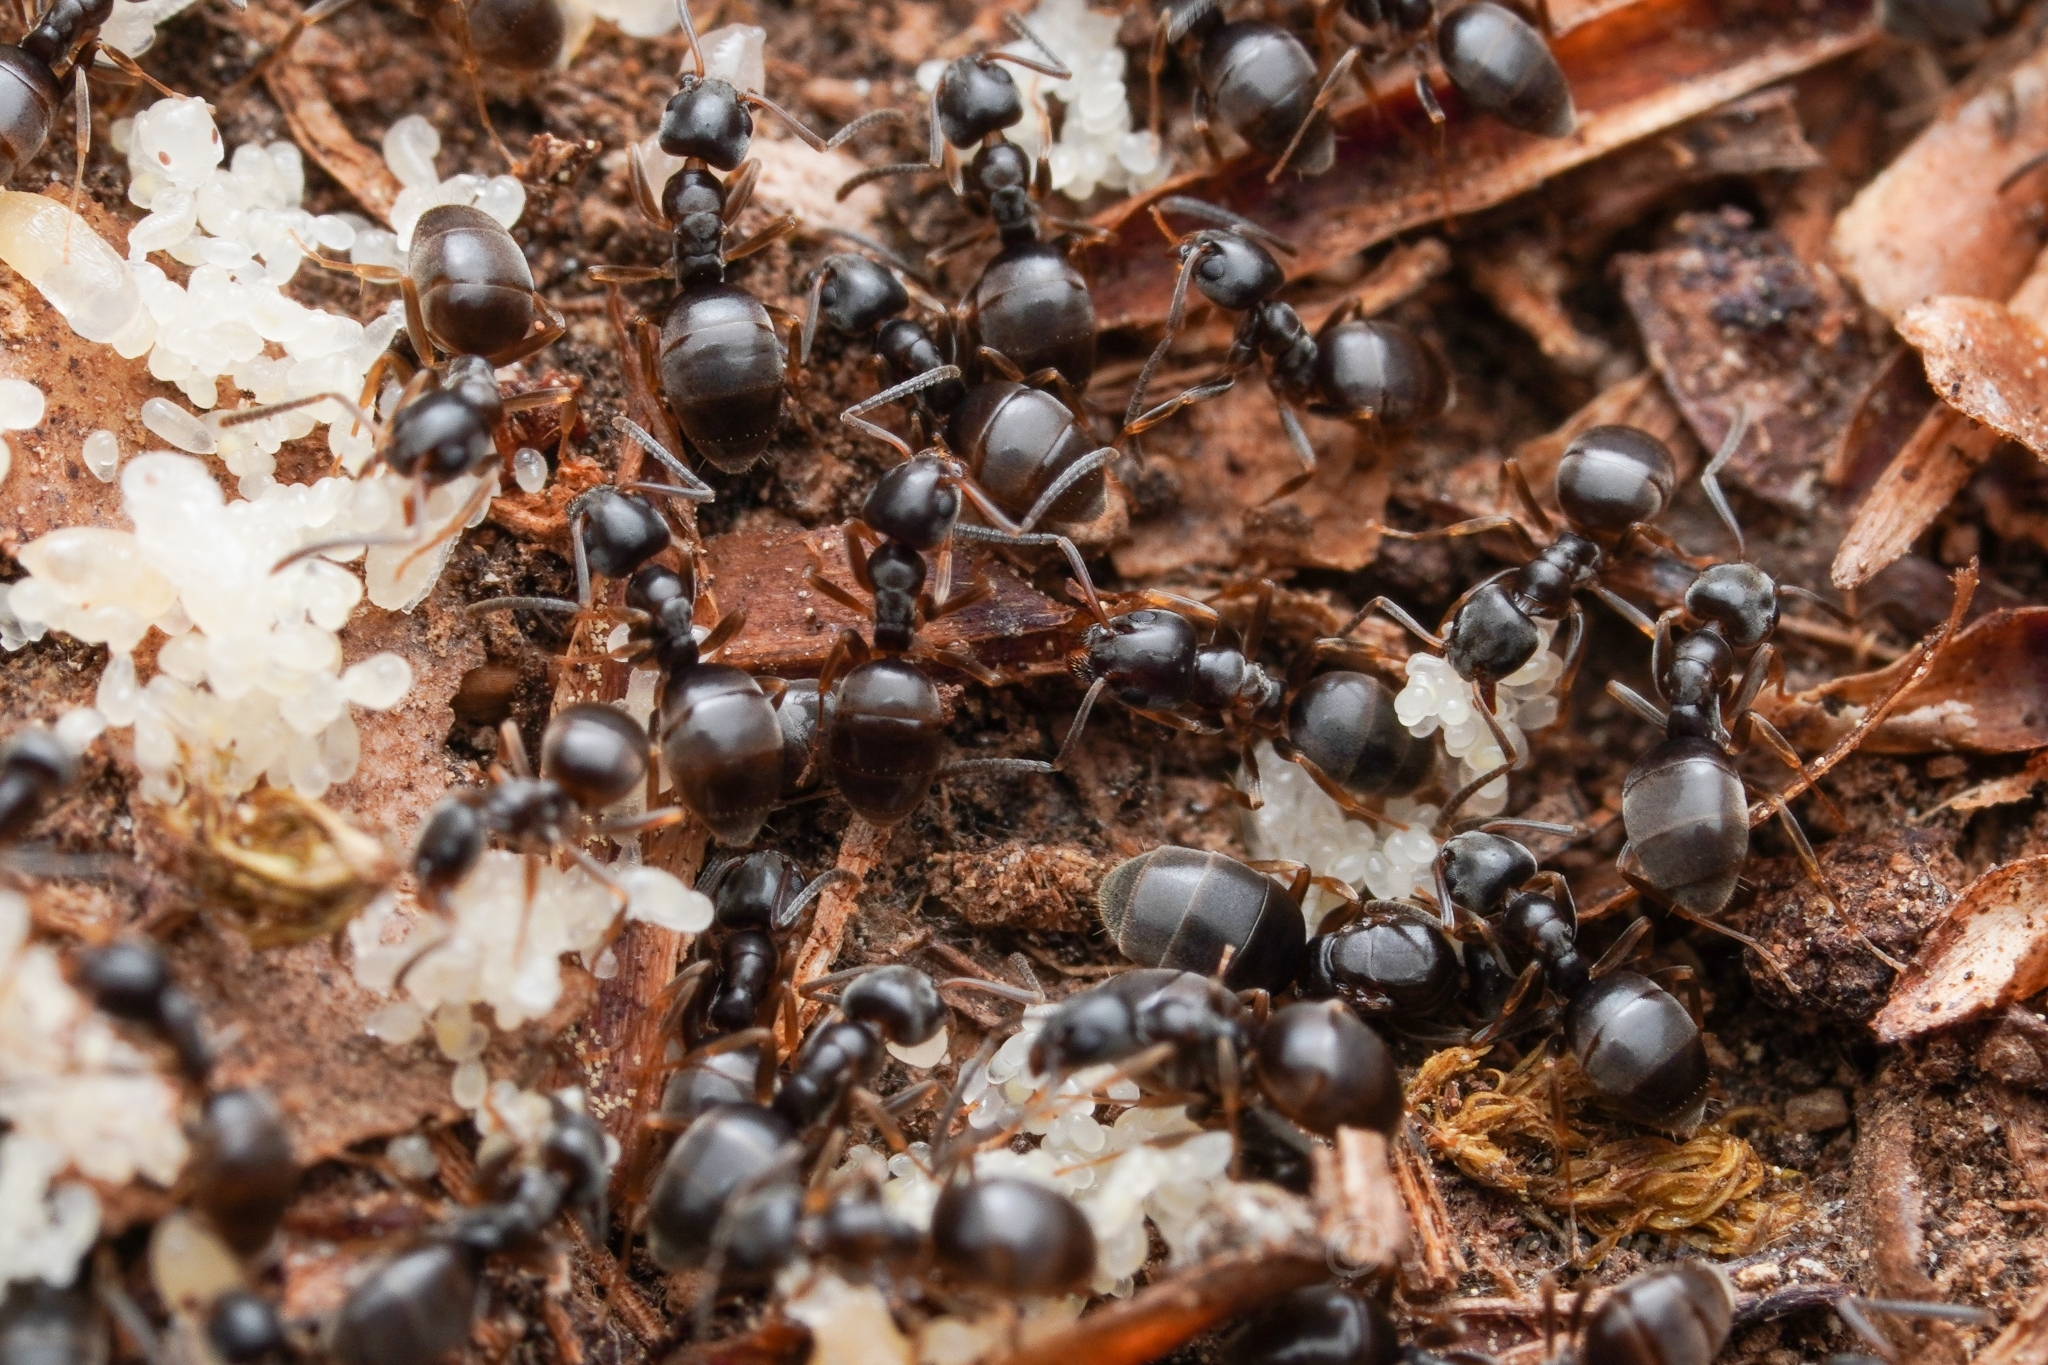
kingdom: Animalia
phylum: Arthropoda
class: Insecta
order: Hymenoptera
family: Formicidae
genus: Tapinoma
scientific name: Tapinoma sessile
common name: Odorous house ant
